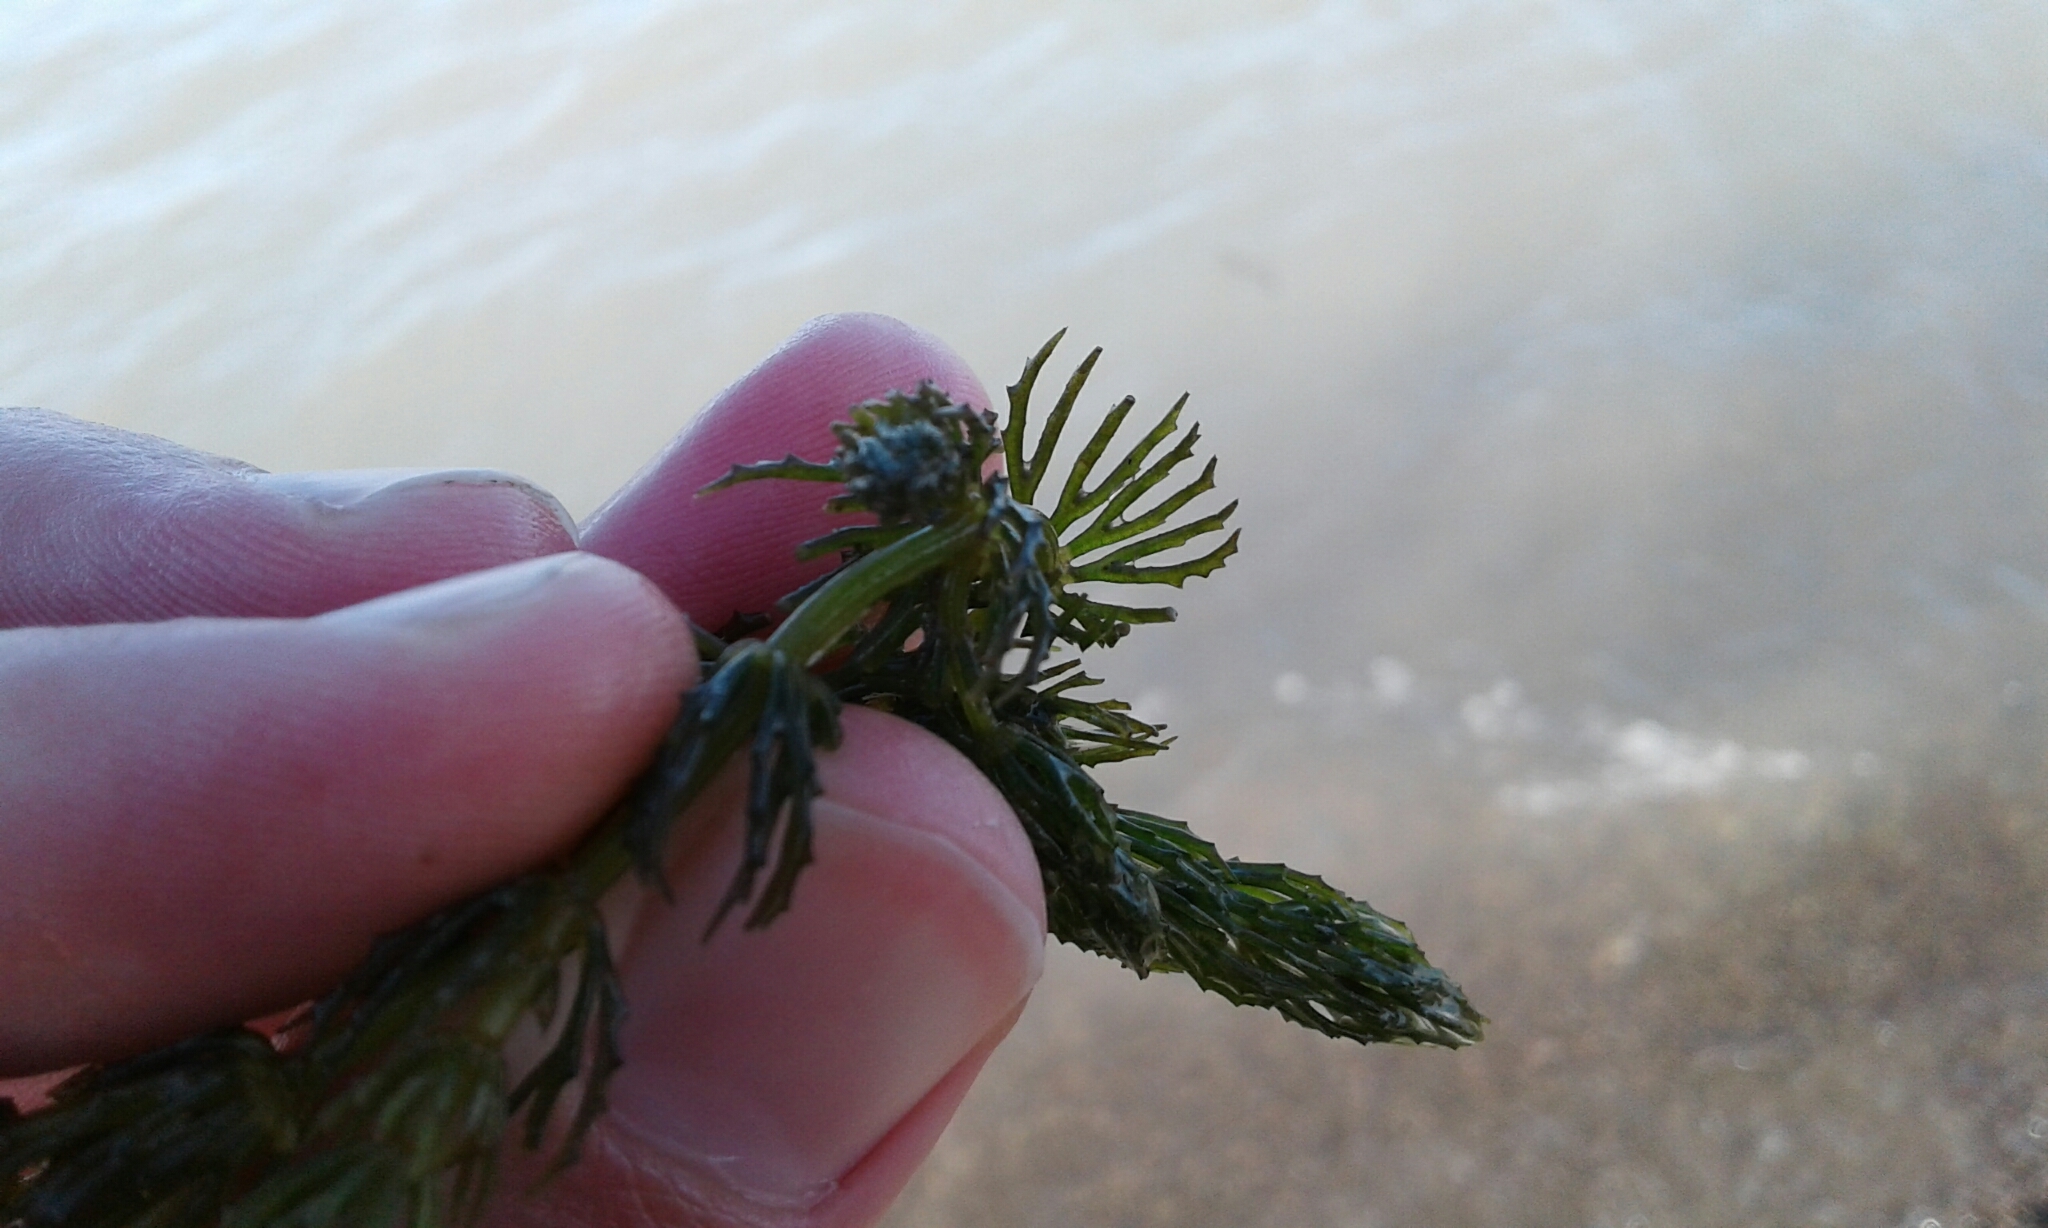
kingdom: Plantae
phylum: Tracheophyta
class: Magnoliopsida
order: Ceratophyllales
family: Ceratophyllaceae
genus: Ceratophyllum
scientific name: Ceratophyllum demersum
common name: Rigid hornwort
